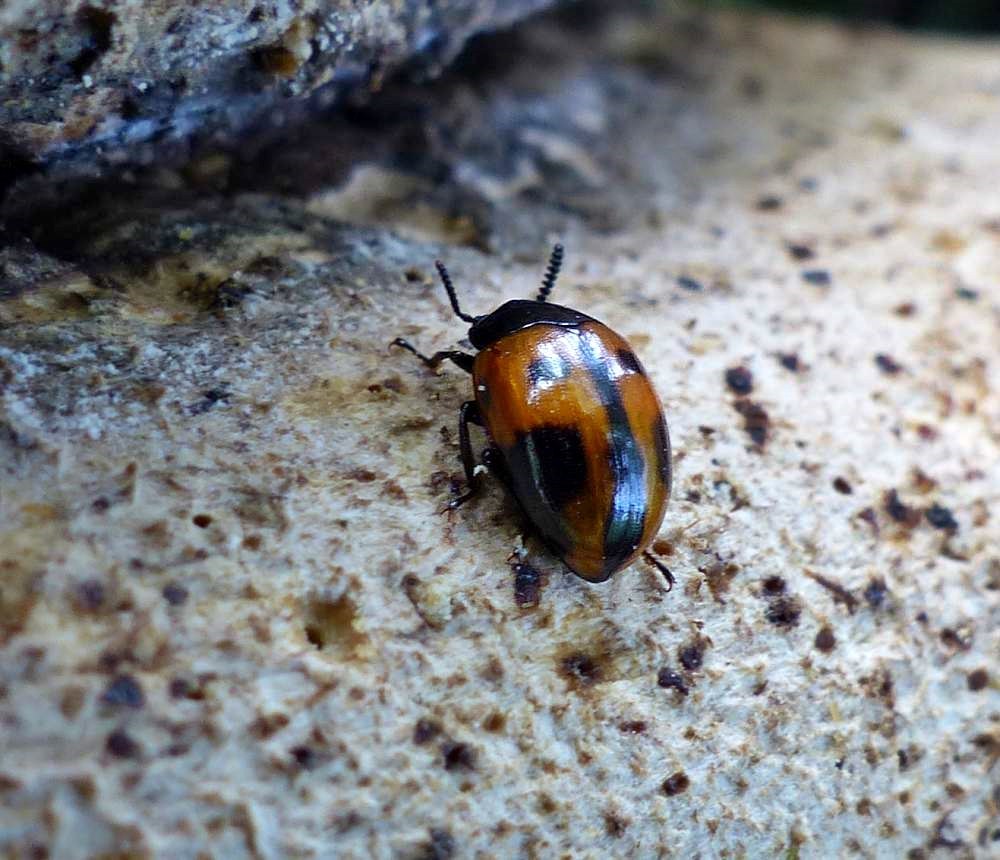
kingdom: Animalia
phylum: Arthropoda
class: Insecta
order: Coleoptera
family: Tenebrionidae
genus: Diaperis
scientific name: Diaperis maculata
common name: Darkling beetle
